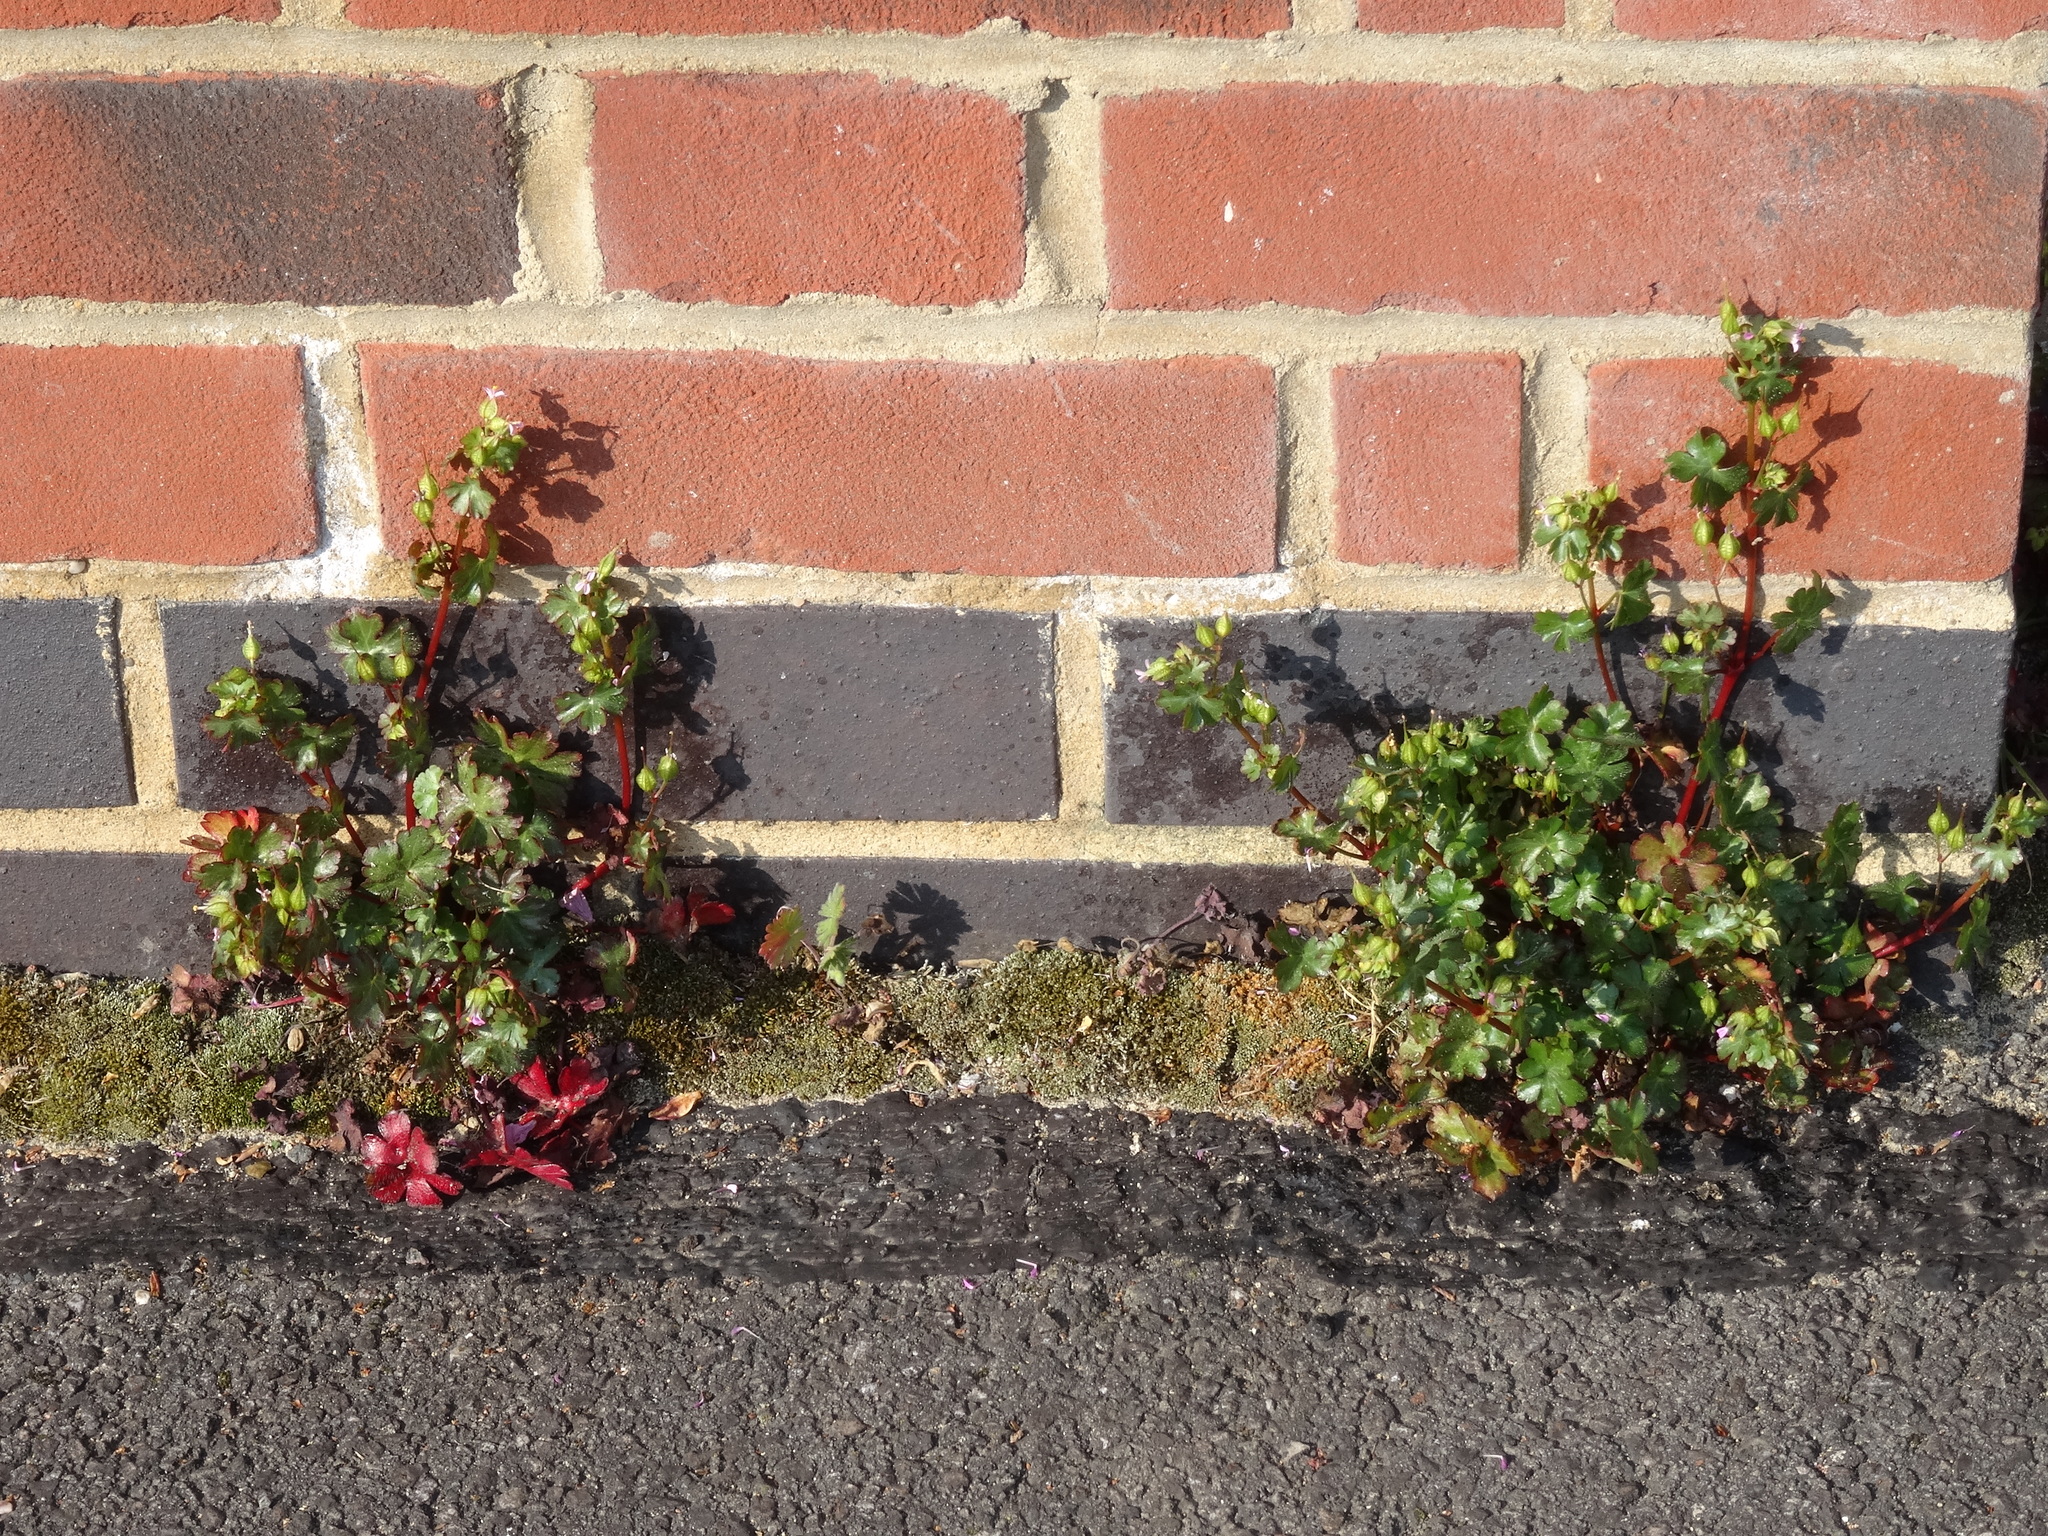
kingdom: Plantae
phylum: Tracheophyta
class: Magnoliopsida
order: Geraniales
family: Geraniaceae
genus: Geranium
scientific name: Geranium lucidum
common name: Shining crane's-bill
